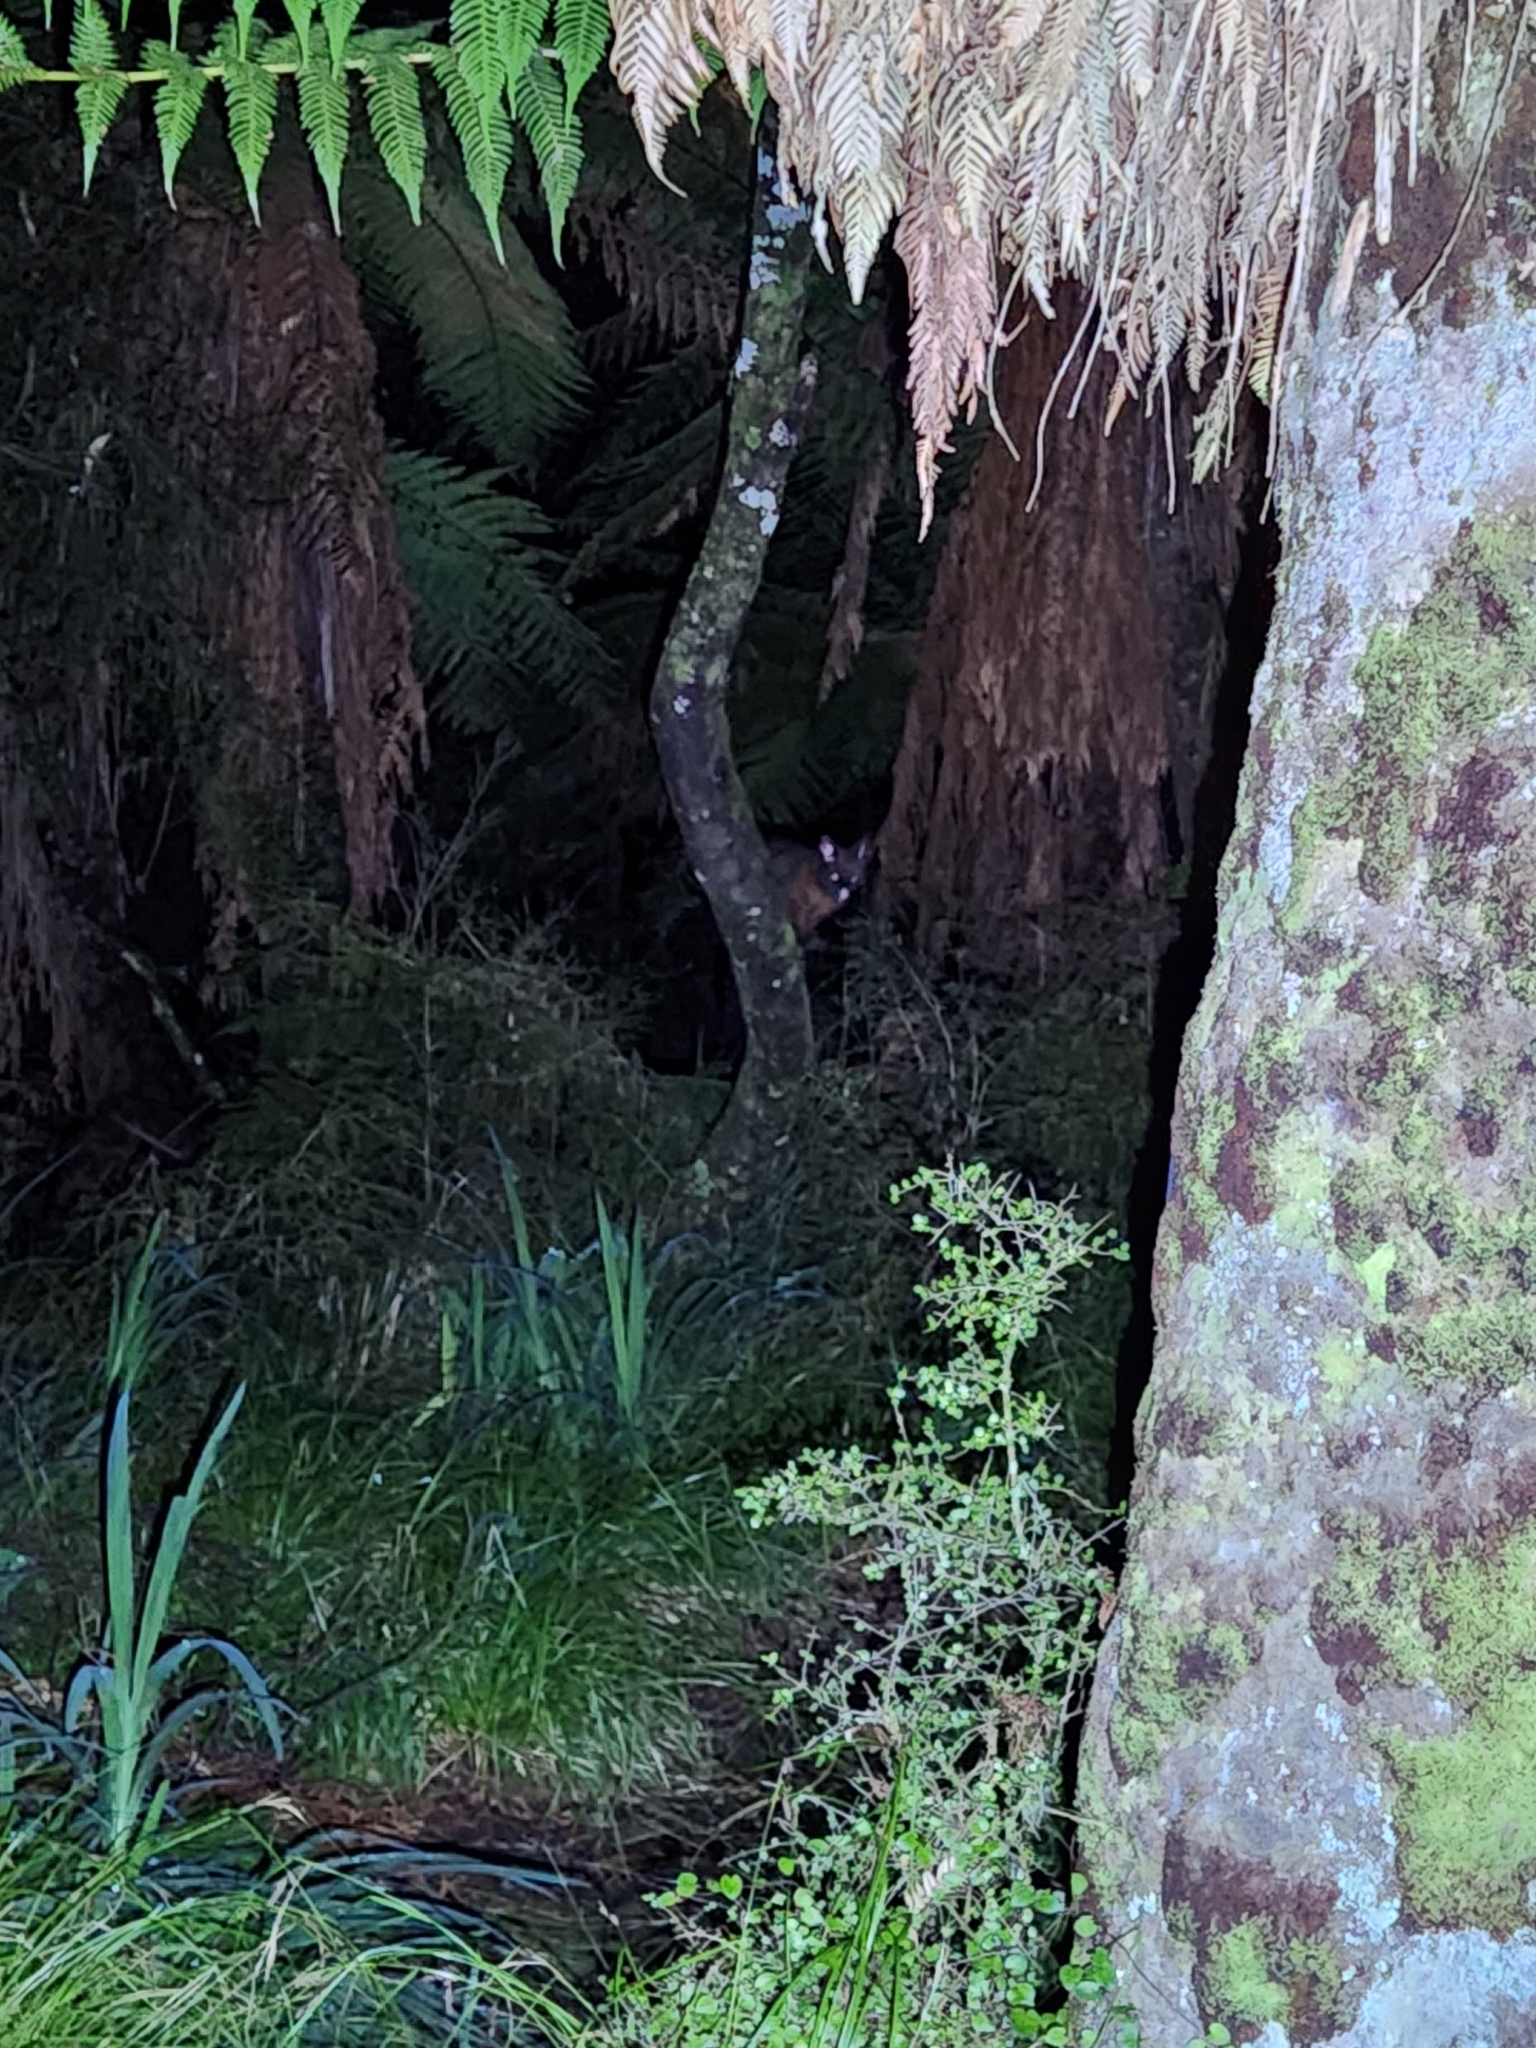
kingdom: Animalia
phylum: Chordata
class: Mammalia
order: Diprotodontia
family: Phalangeridae
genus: Trichosurus
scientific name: Trichosurus vulpecula
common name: Common brushtail
